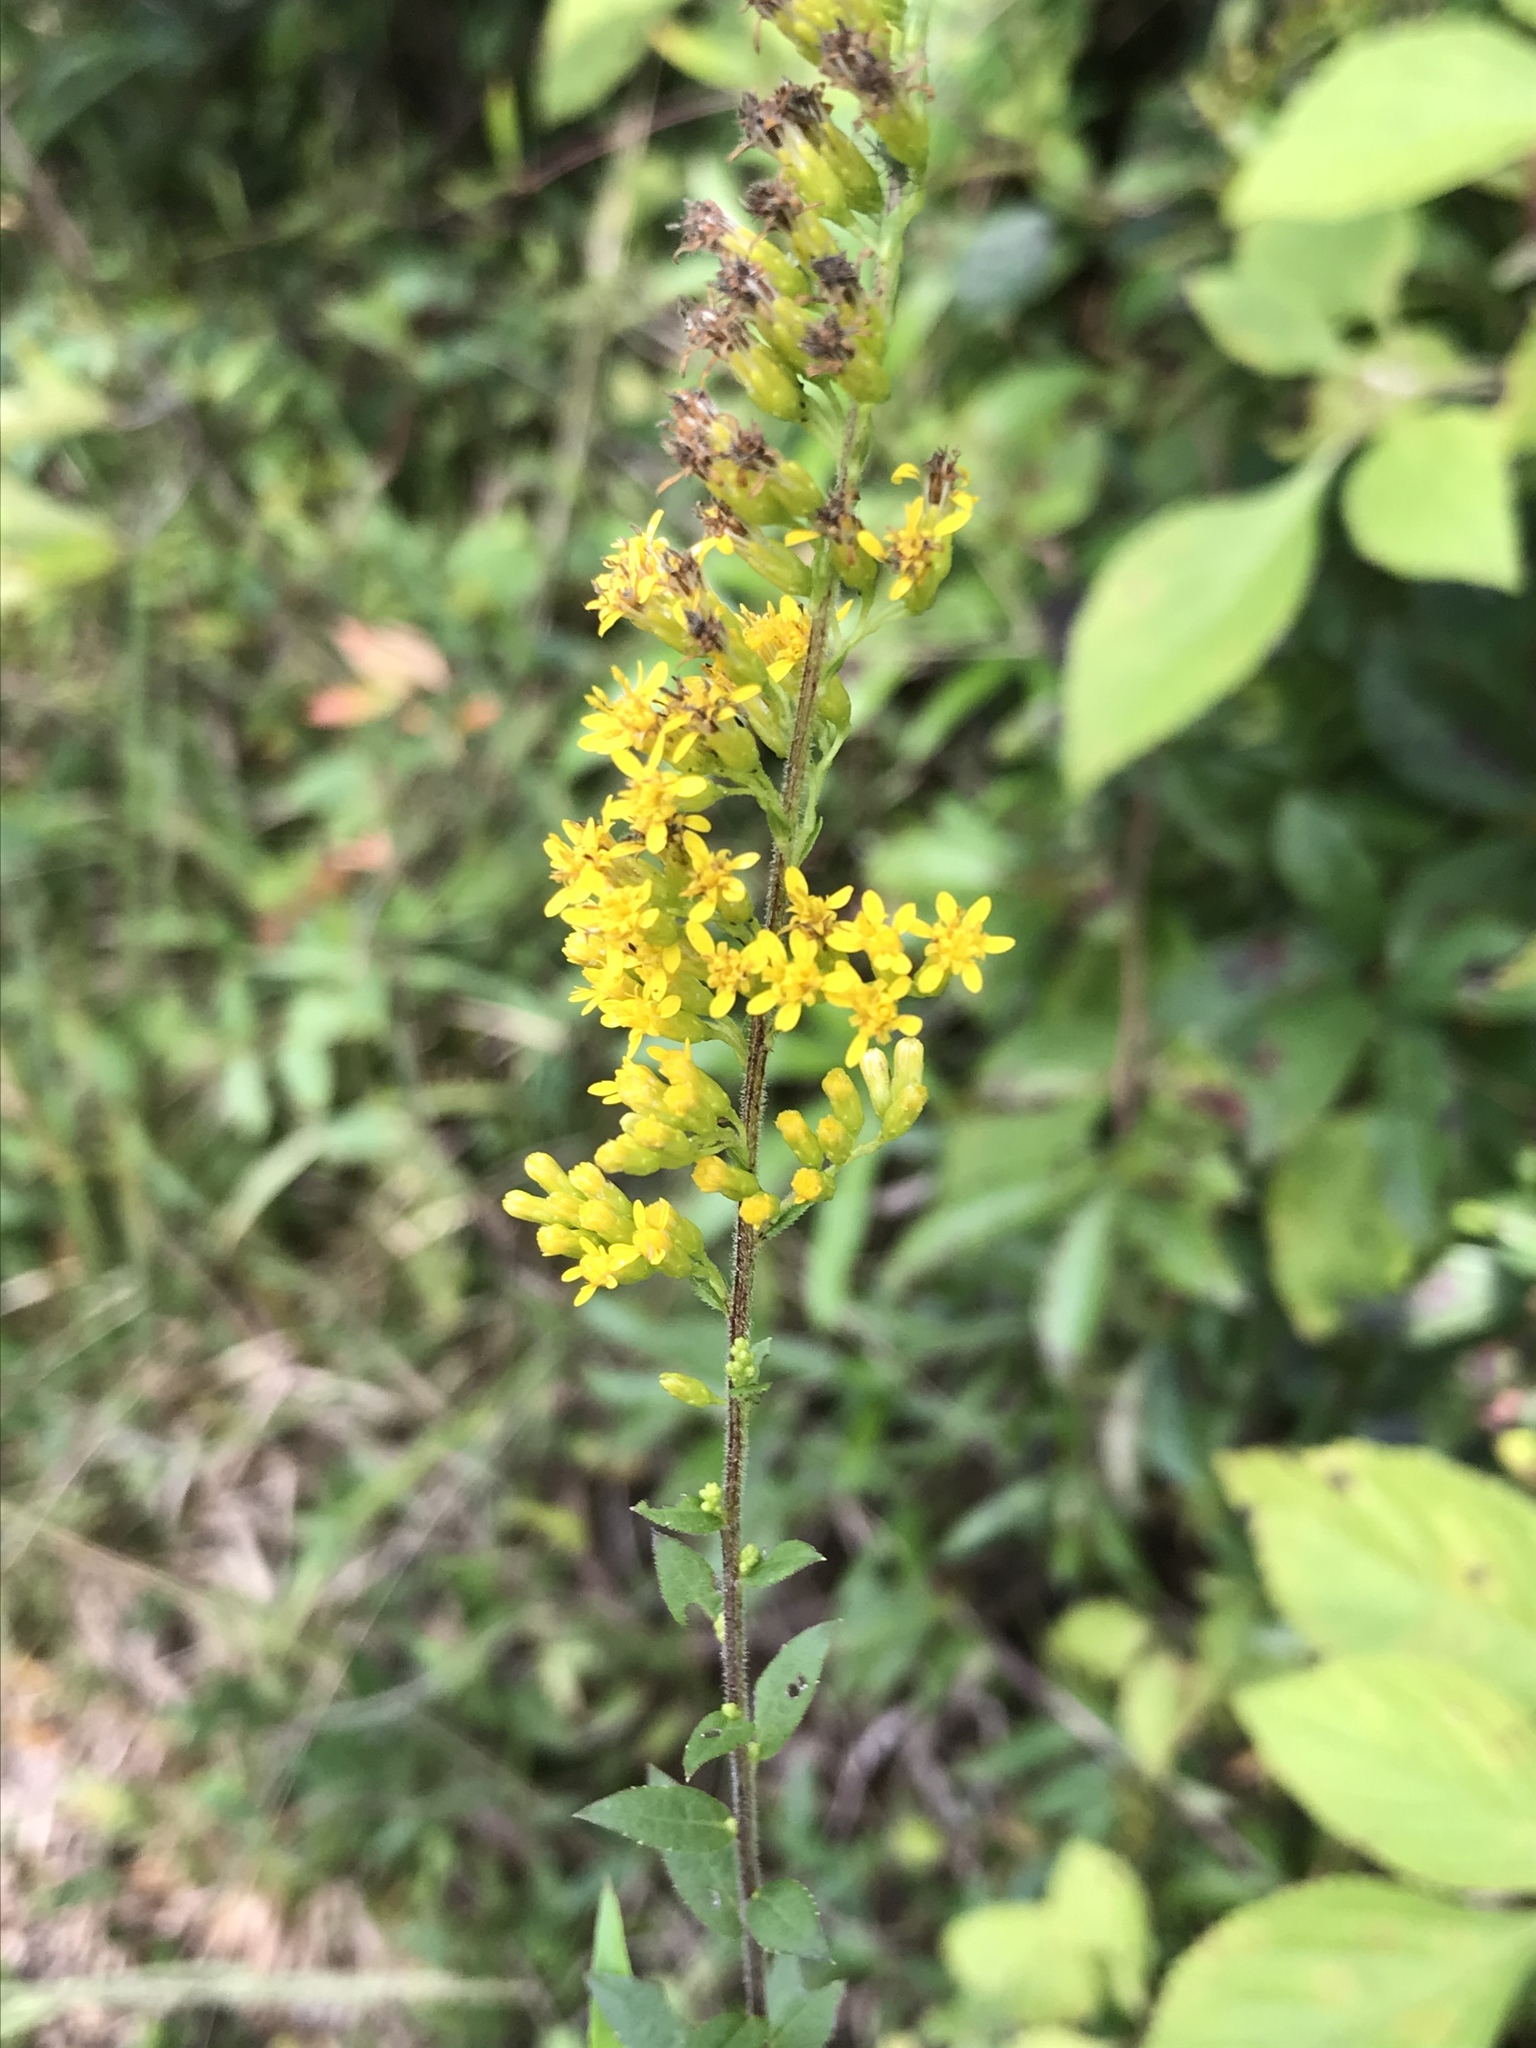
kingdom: Plantae
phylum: Tracheophyta
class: Magnoliopsida
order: Asterales
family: Asteraceae
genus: Solidago
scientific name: Solidago rugosa
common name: Rough-stemmed goldenrod
